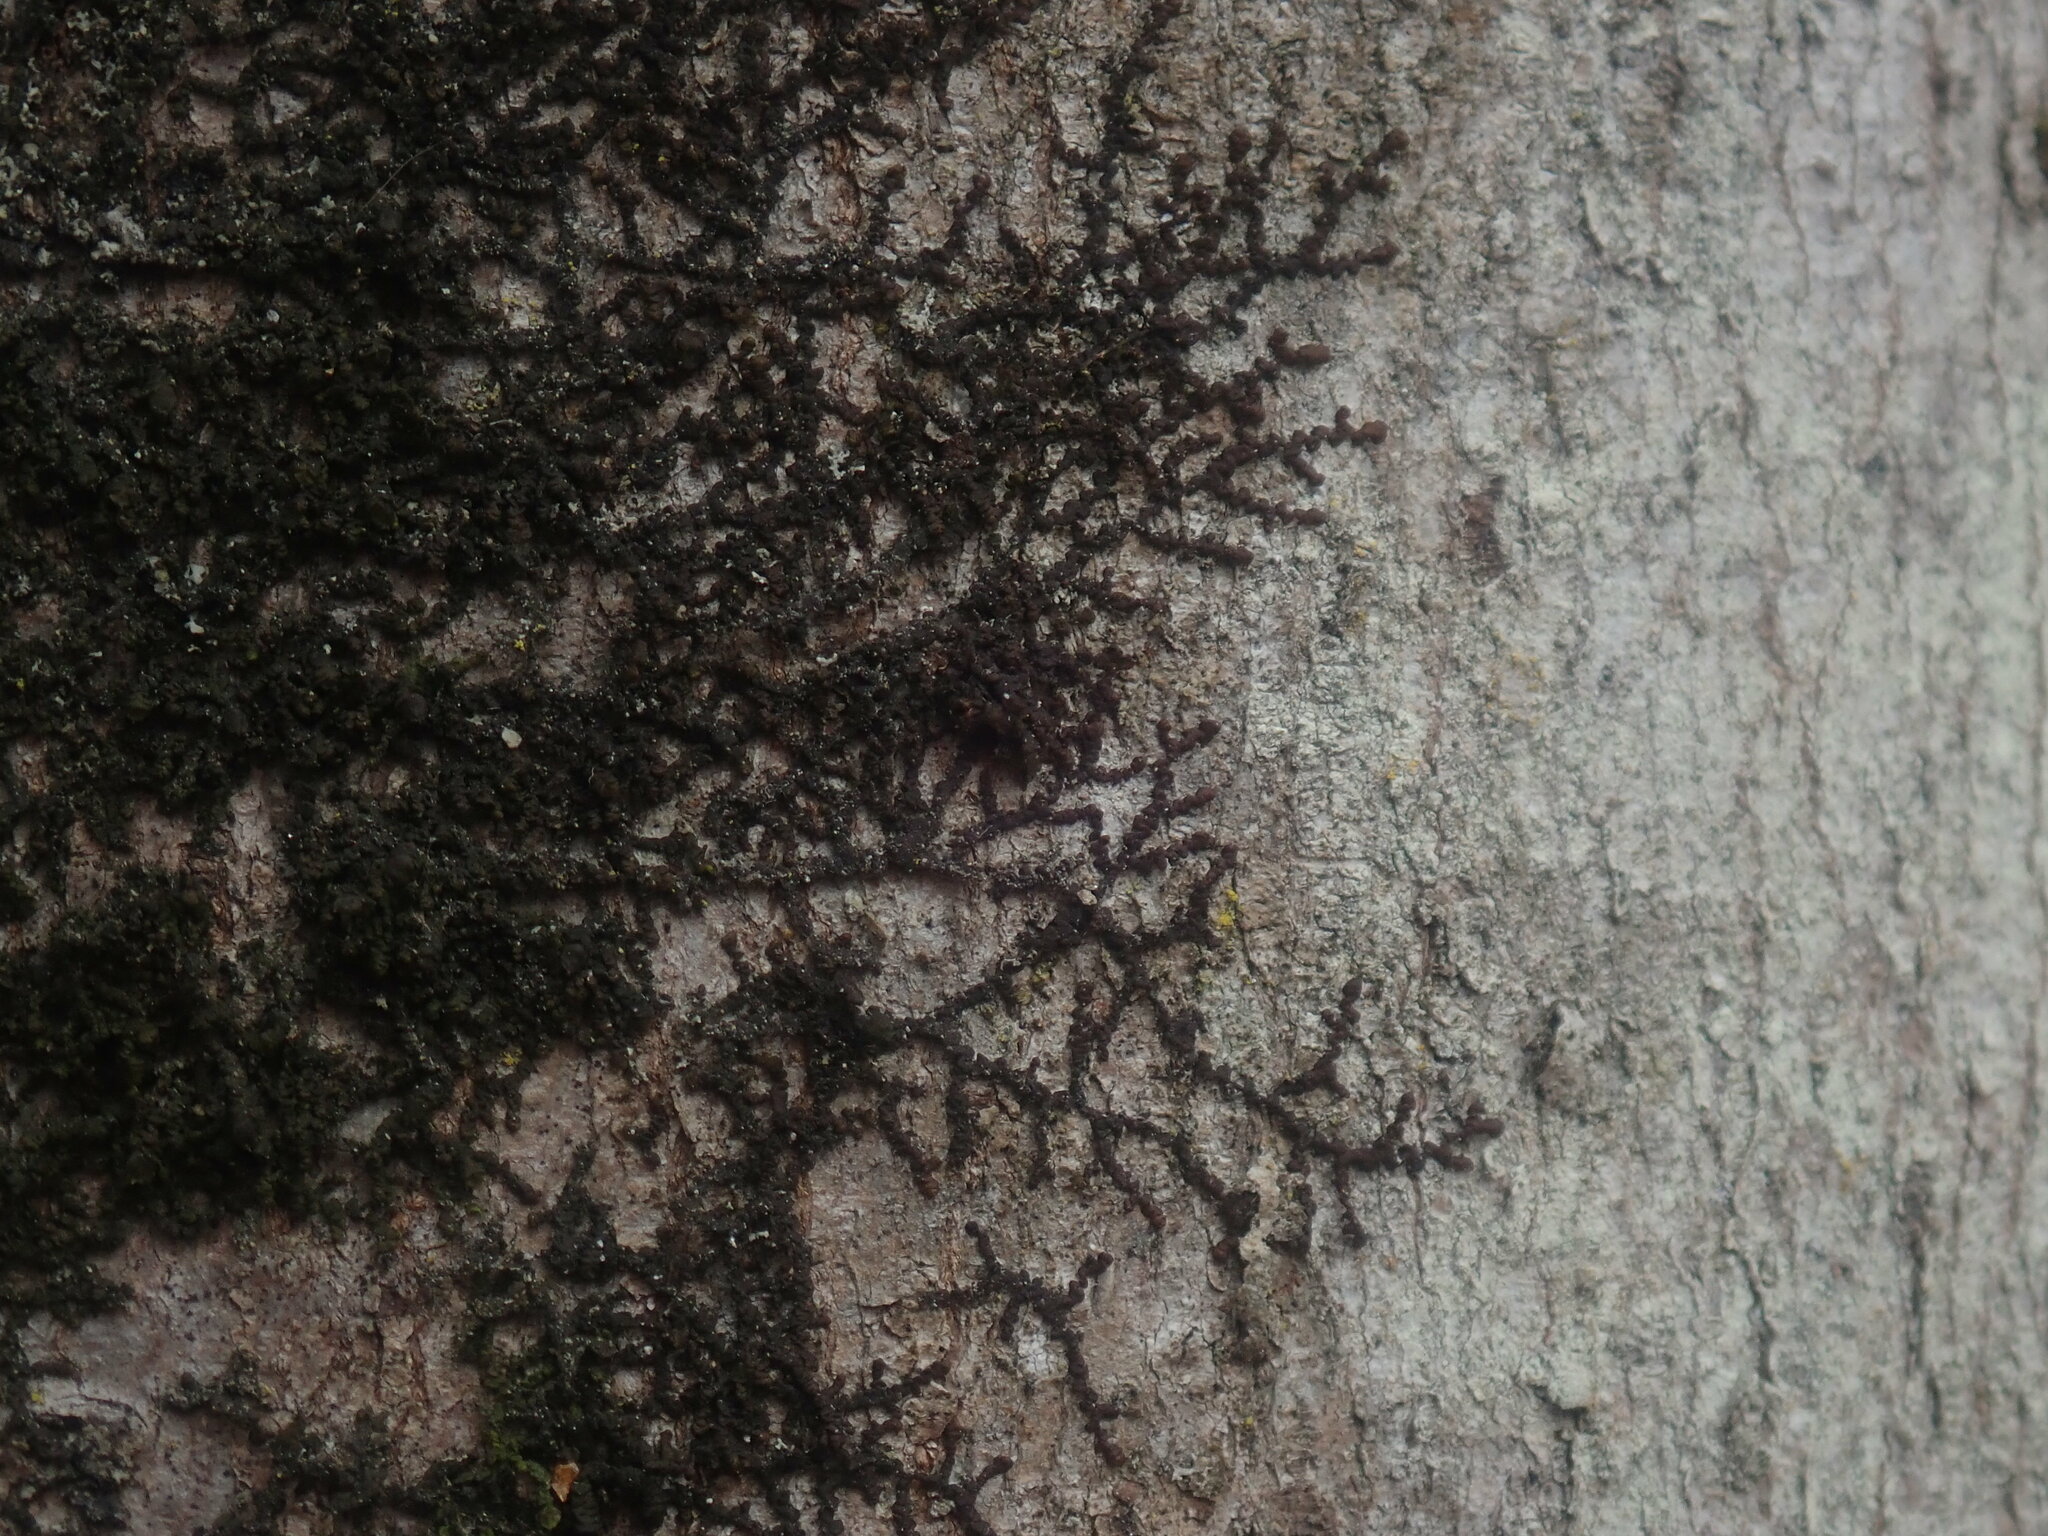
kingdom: Plantae
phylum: Marchantiophyta
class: Jungermanniopsida
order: Porellales
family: Frullaniaceae
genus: Frullania
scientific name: Frullania
